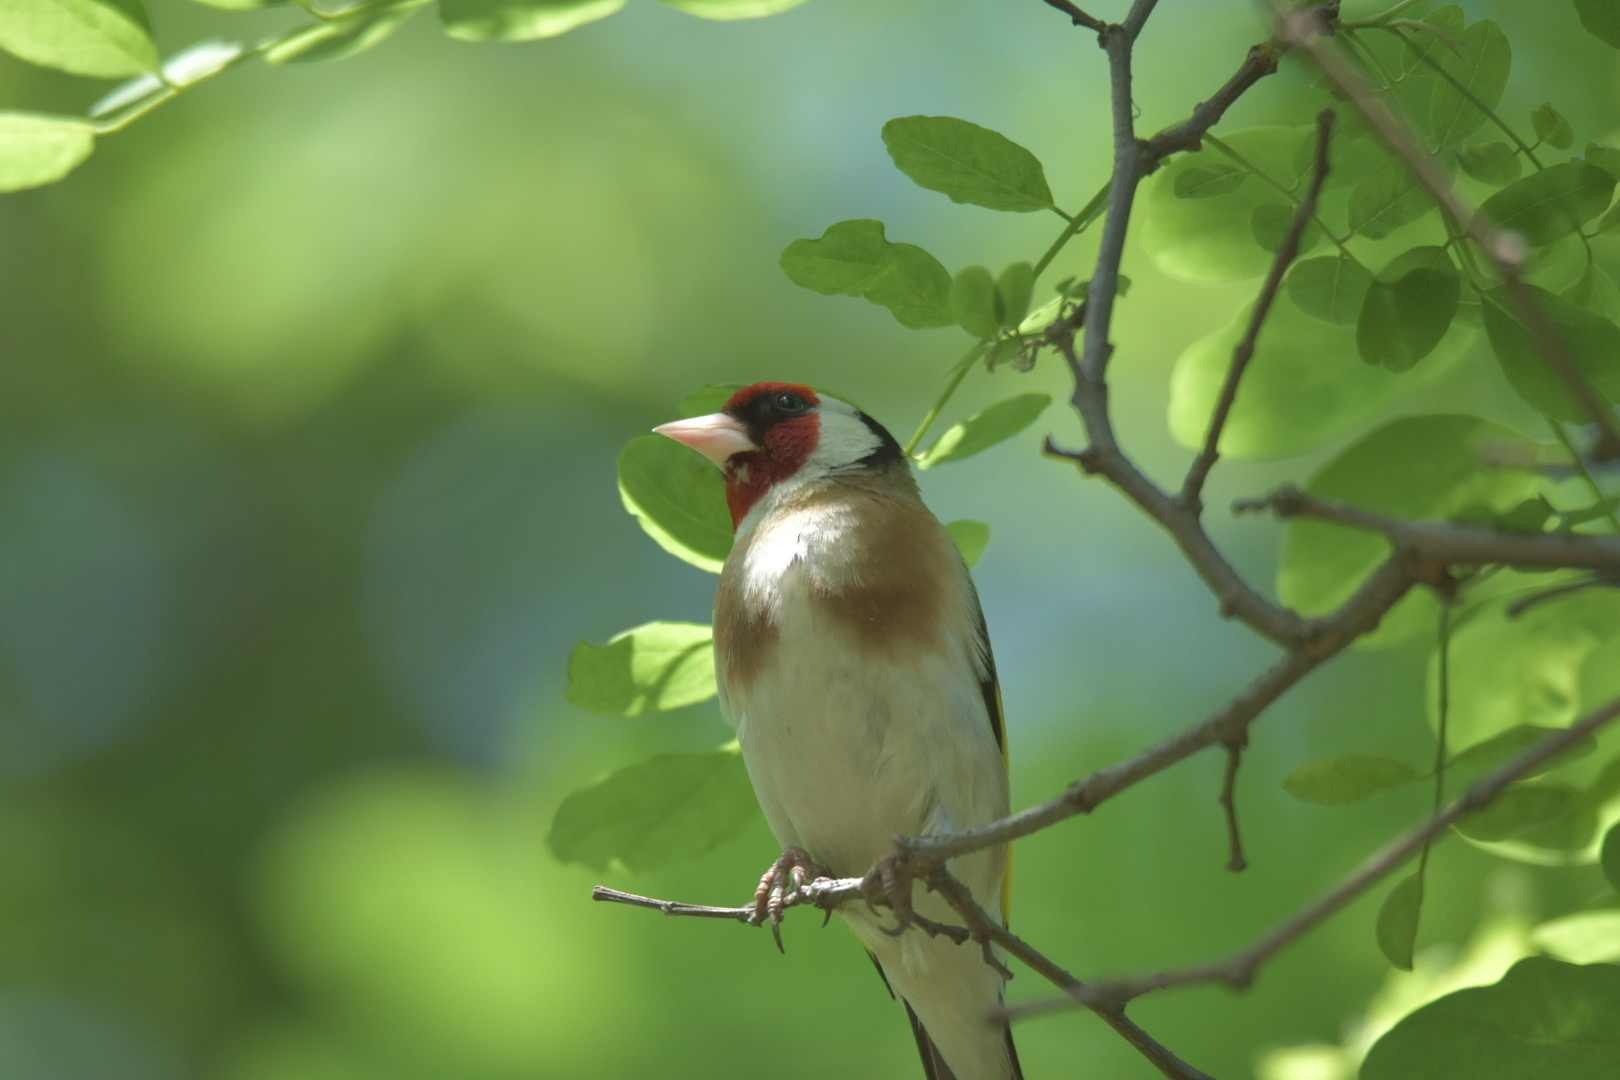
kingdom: Animalia
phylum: Chordata
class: Aves
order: Passeriformes
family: Fringillidae
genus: Carduelis
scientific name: Carduelis carduelis
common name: European goldfinch
